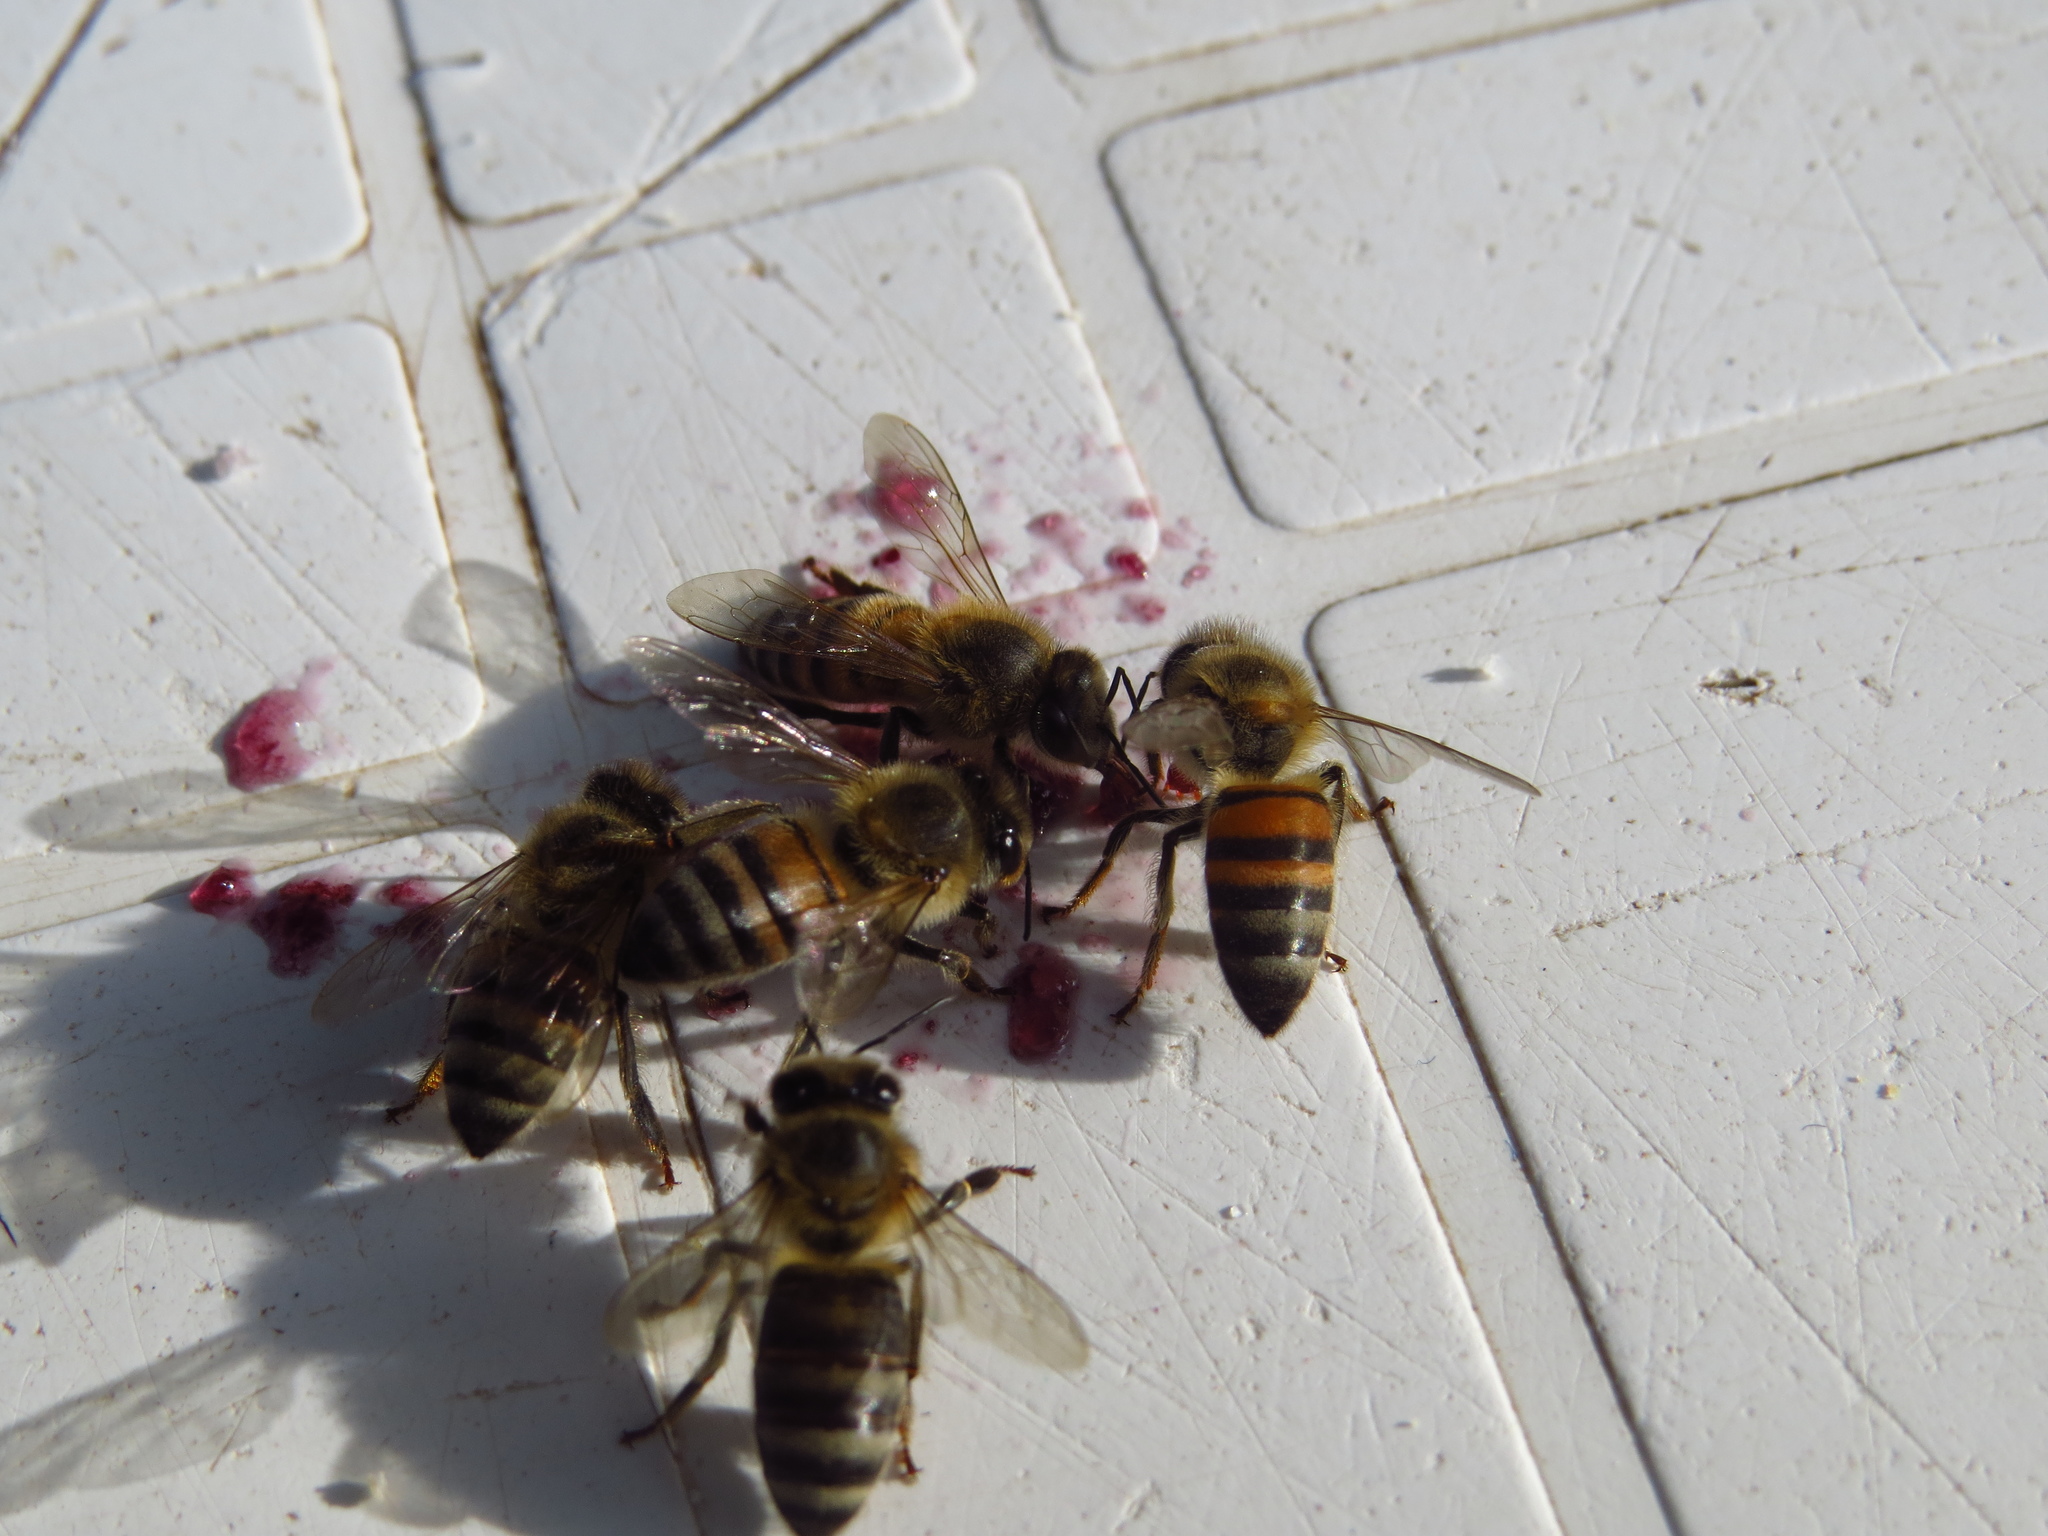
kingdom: Animalia
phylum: Arthropoda
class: Insecta
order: Hymenoptera
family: Apidae
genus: Apis
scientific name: Apis mellifera
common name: Honey bee
